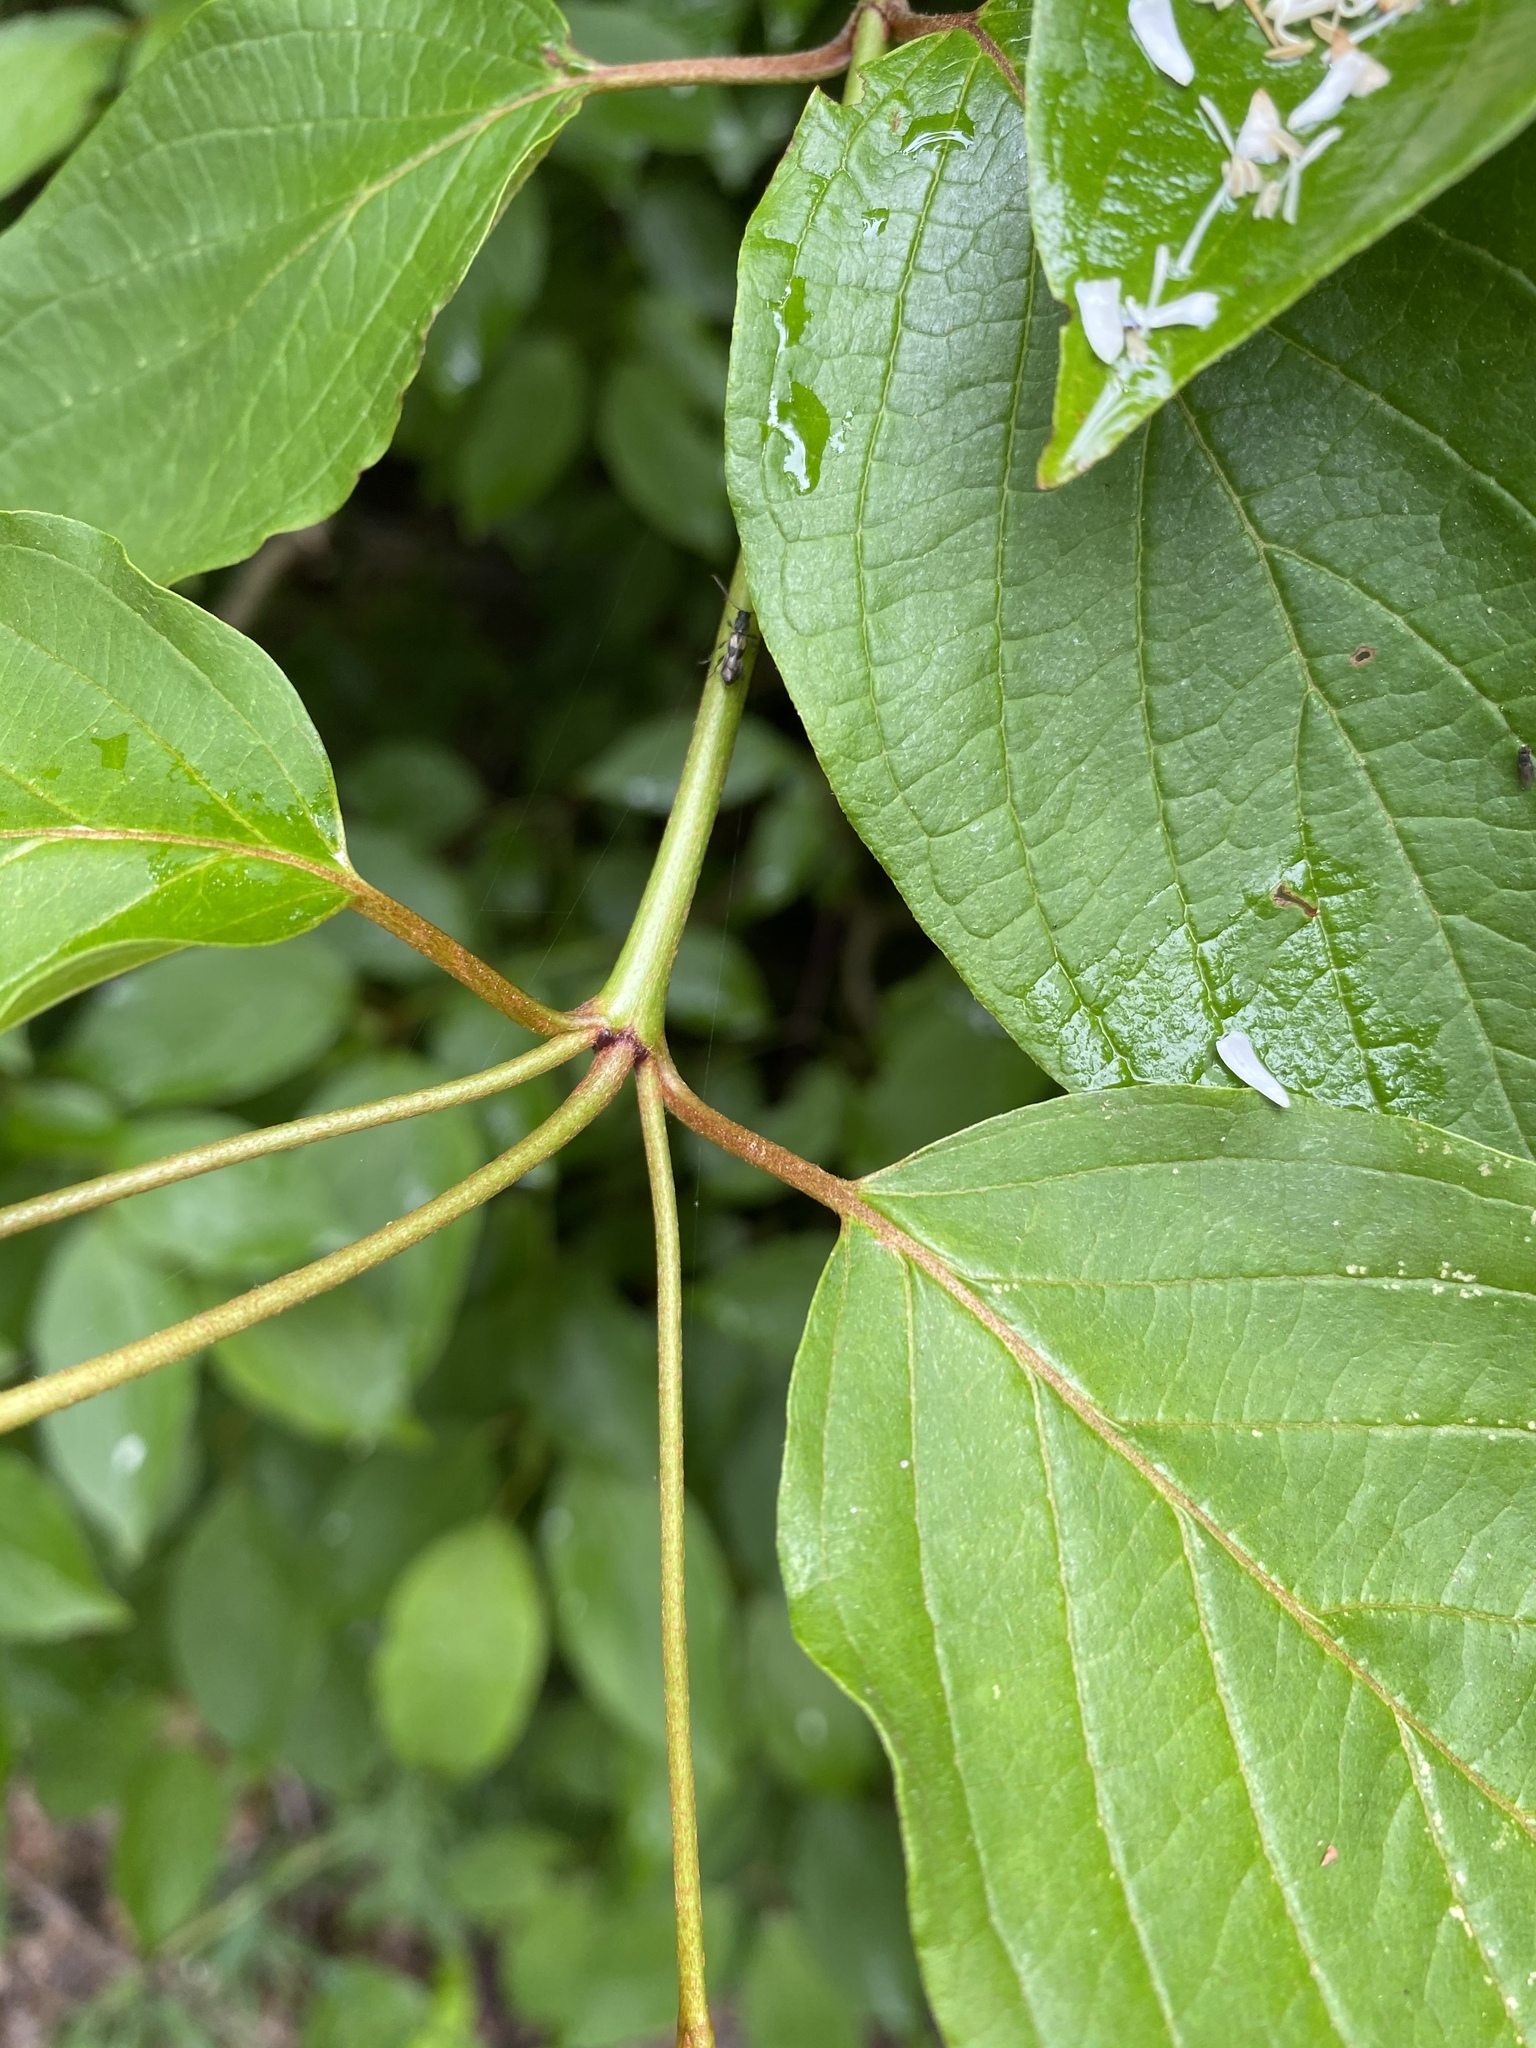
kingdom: Plantae
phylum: Tracheophyta
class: Magnoliopsida
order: Cornales
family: Cornaceae
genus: Cornus
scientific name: Cornus racemosa
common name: Panicled dogwood
